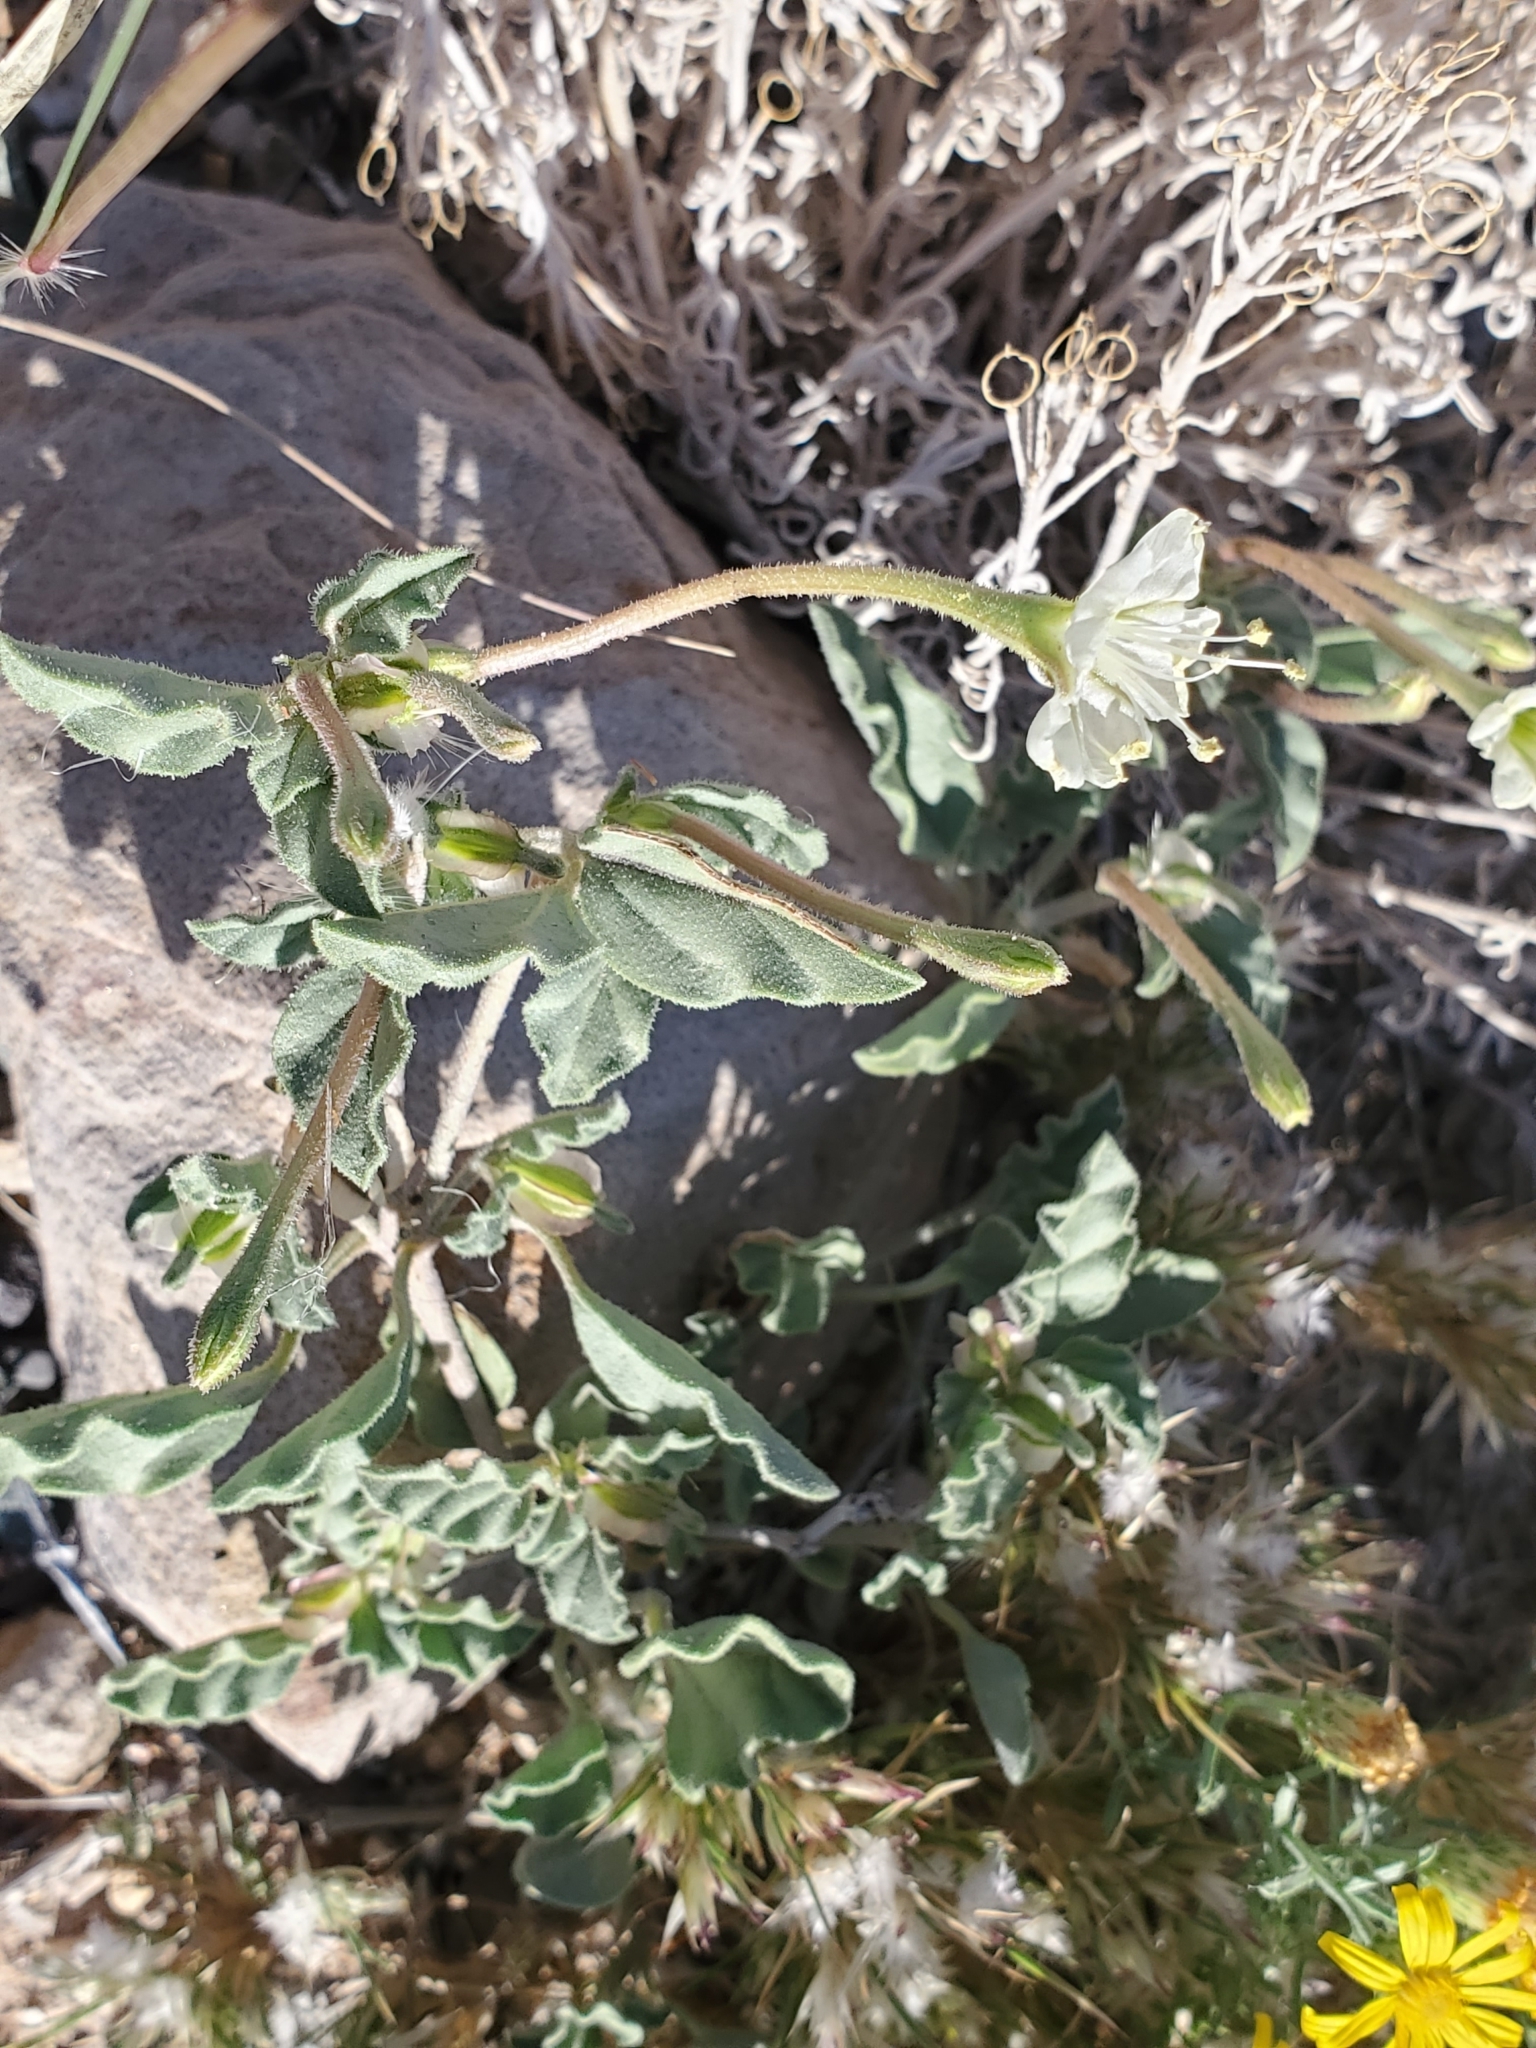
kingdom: Plantae
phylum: Tracheophyta
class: Magnoliopsida
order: Caryophyllales
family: Nyctaginaceae
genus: Acleisanthes
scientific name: Acleisanthes diffusa
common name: Spreading moonpod
